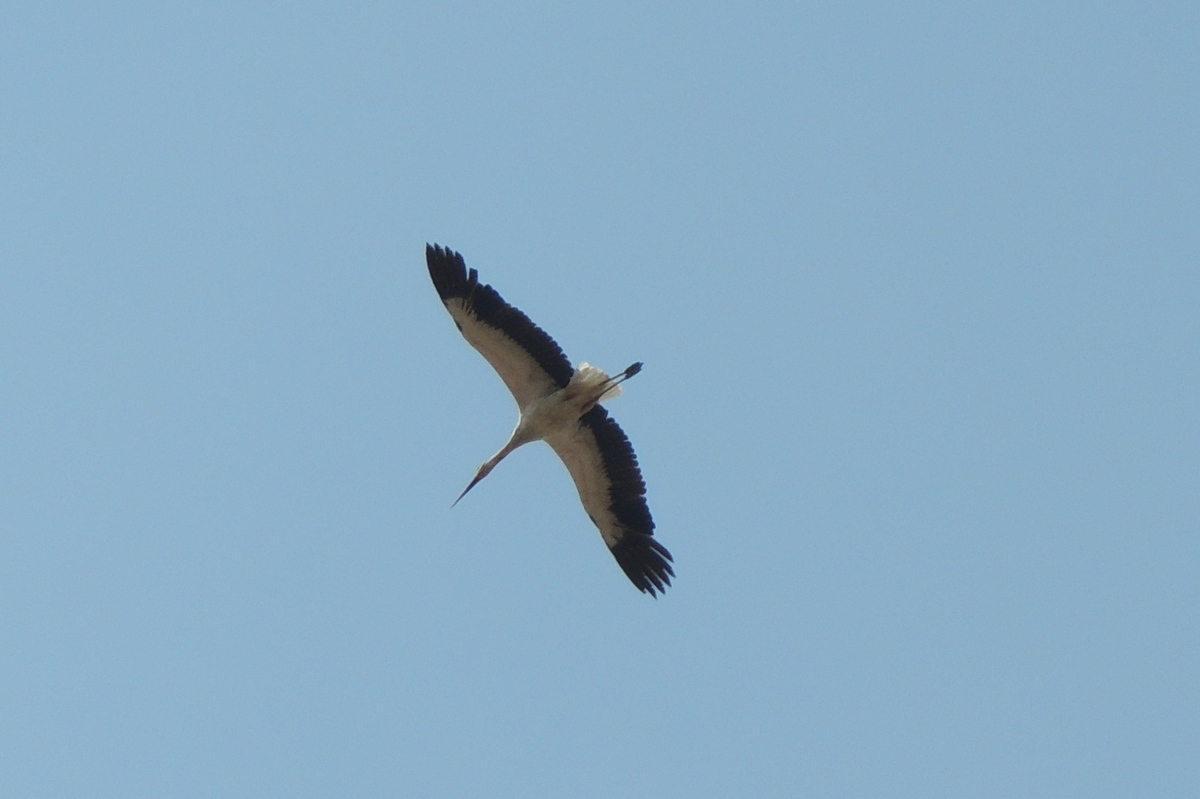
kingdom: Animalia
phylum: Chordata
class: Aves
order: Ciconiiformes
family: Ciconiidae
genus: Ciconia
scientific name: Ciconia ciconia
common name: White stork
